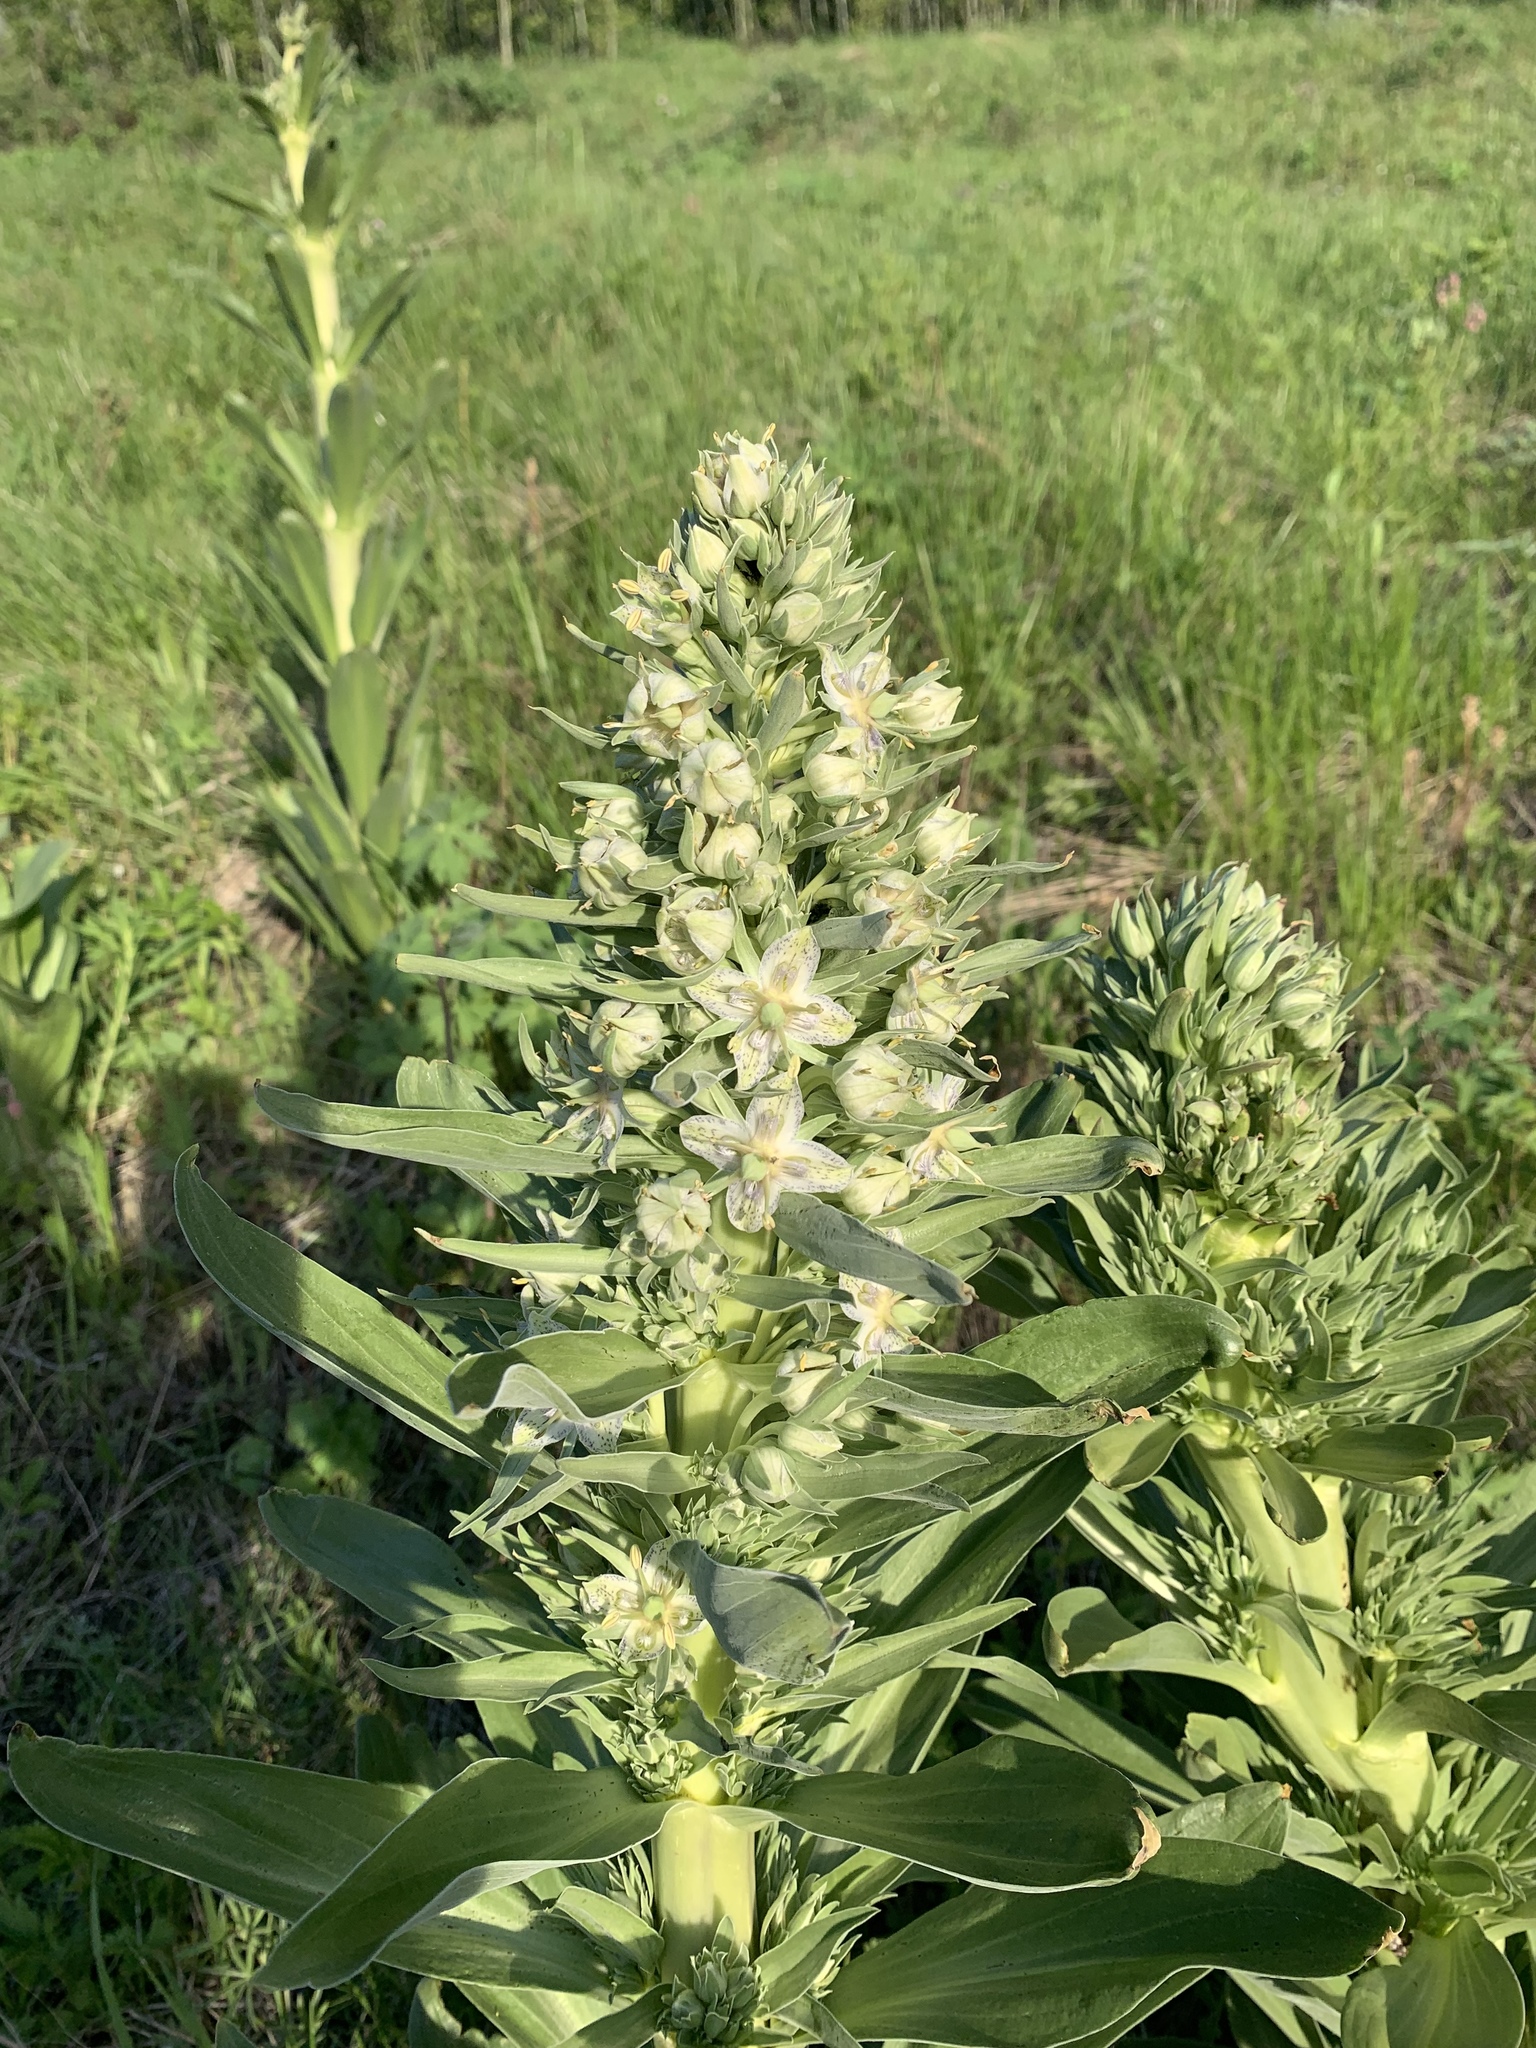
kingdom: Plantae
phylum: Tracheophyta
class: Magnoliopsida
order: Gentianales
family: Gentianaceae
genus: Frasera
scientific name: Frasera speciosa
